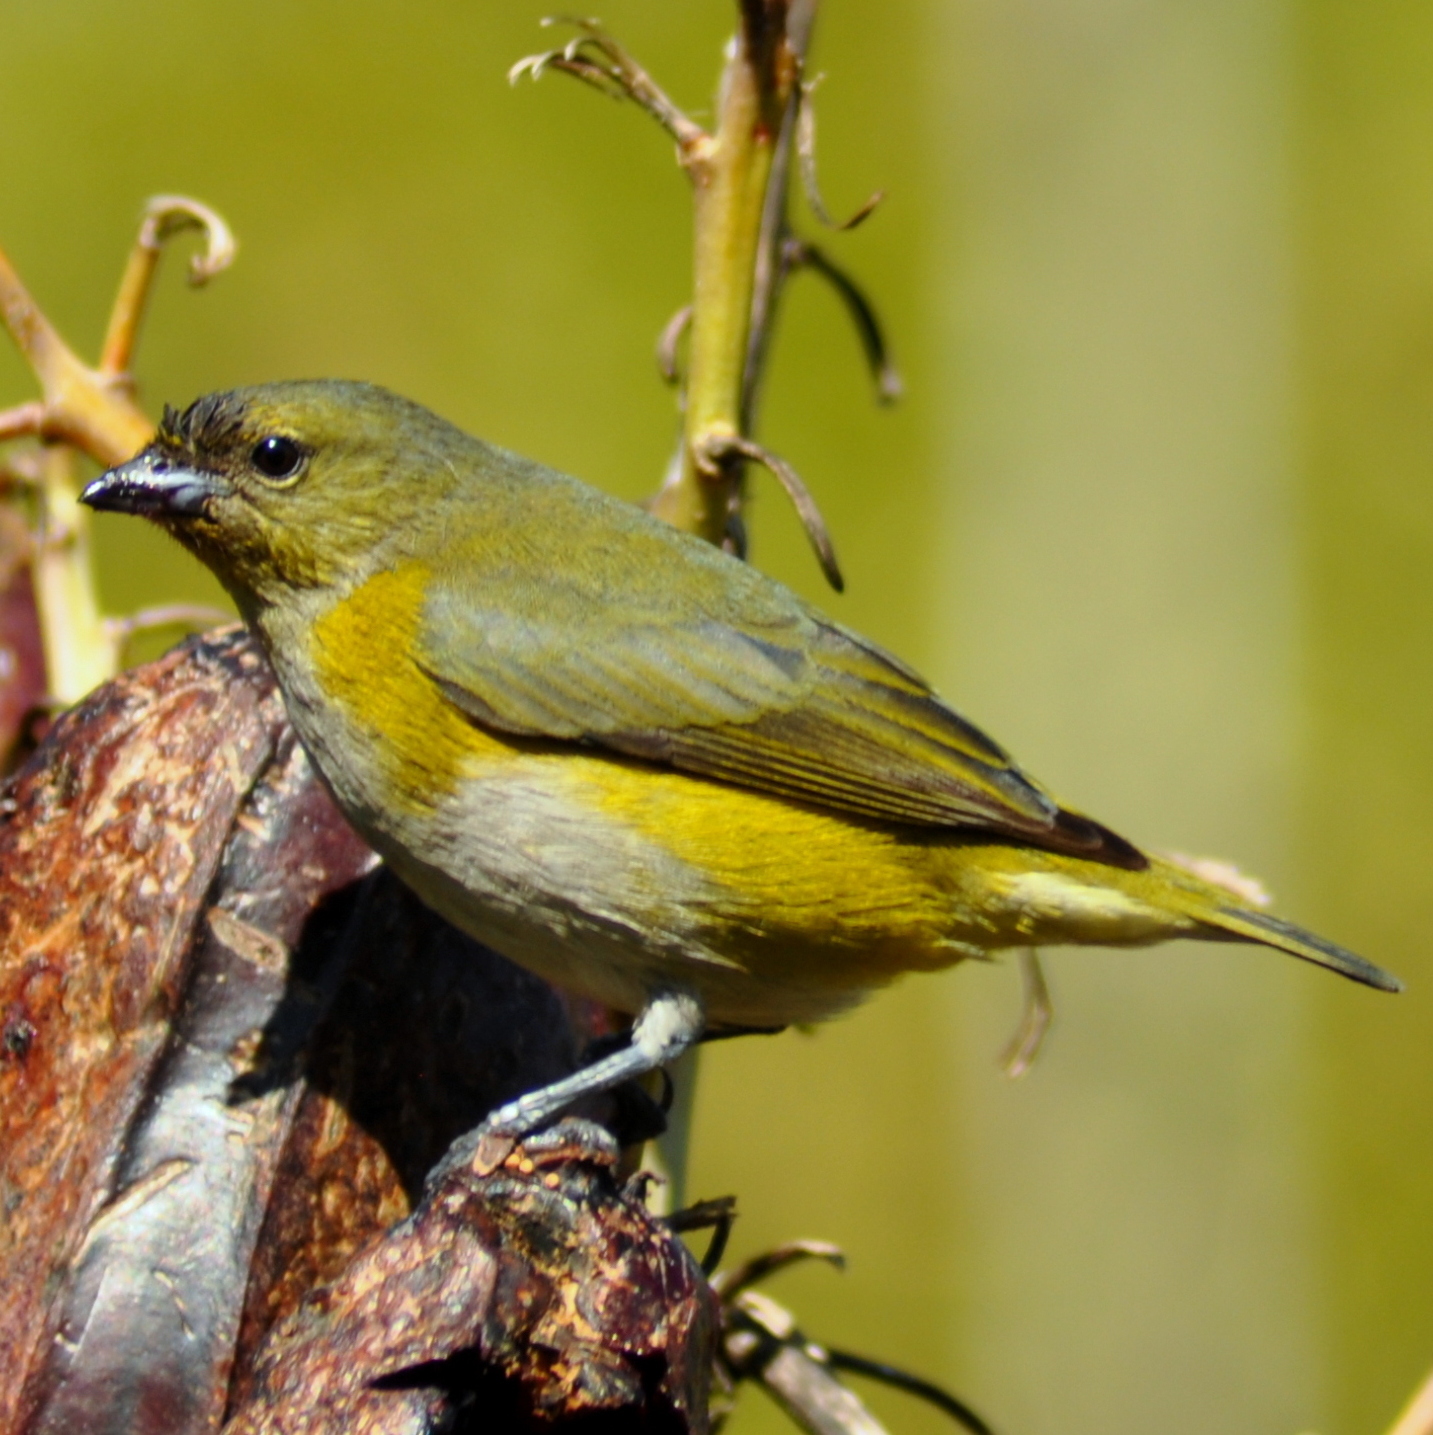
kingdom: Animalia
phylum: Chordata
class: Aves
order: Passeriformes
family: Fringillidae
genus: Euphonia
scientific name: Euphonia chlorotica
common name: Purple-throated euphonia
